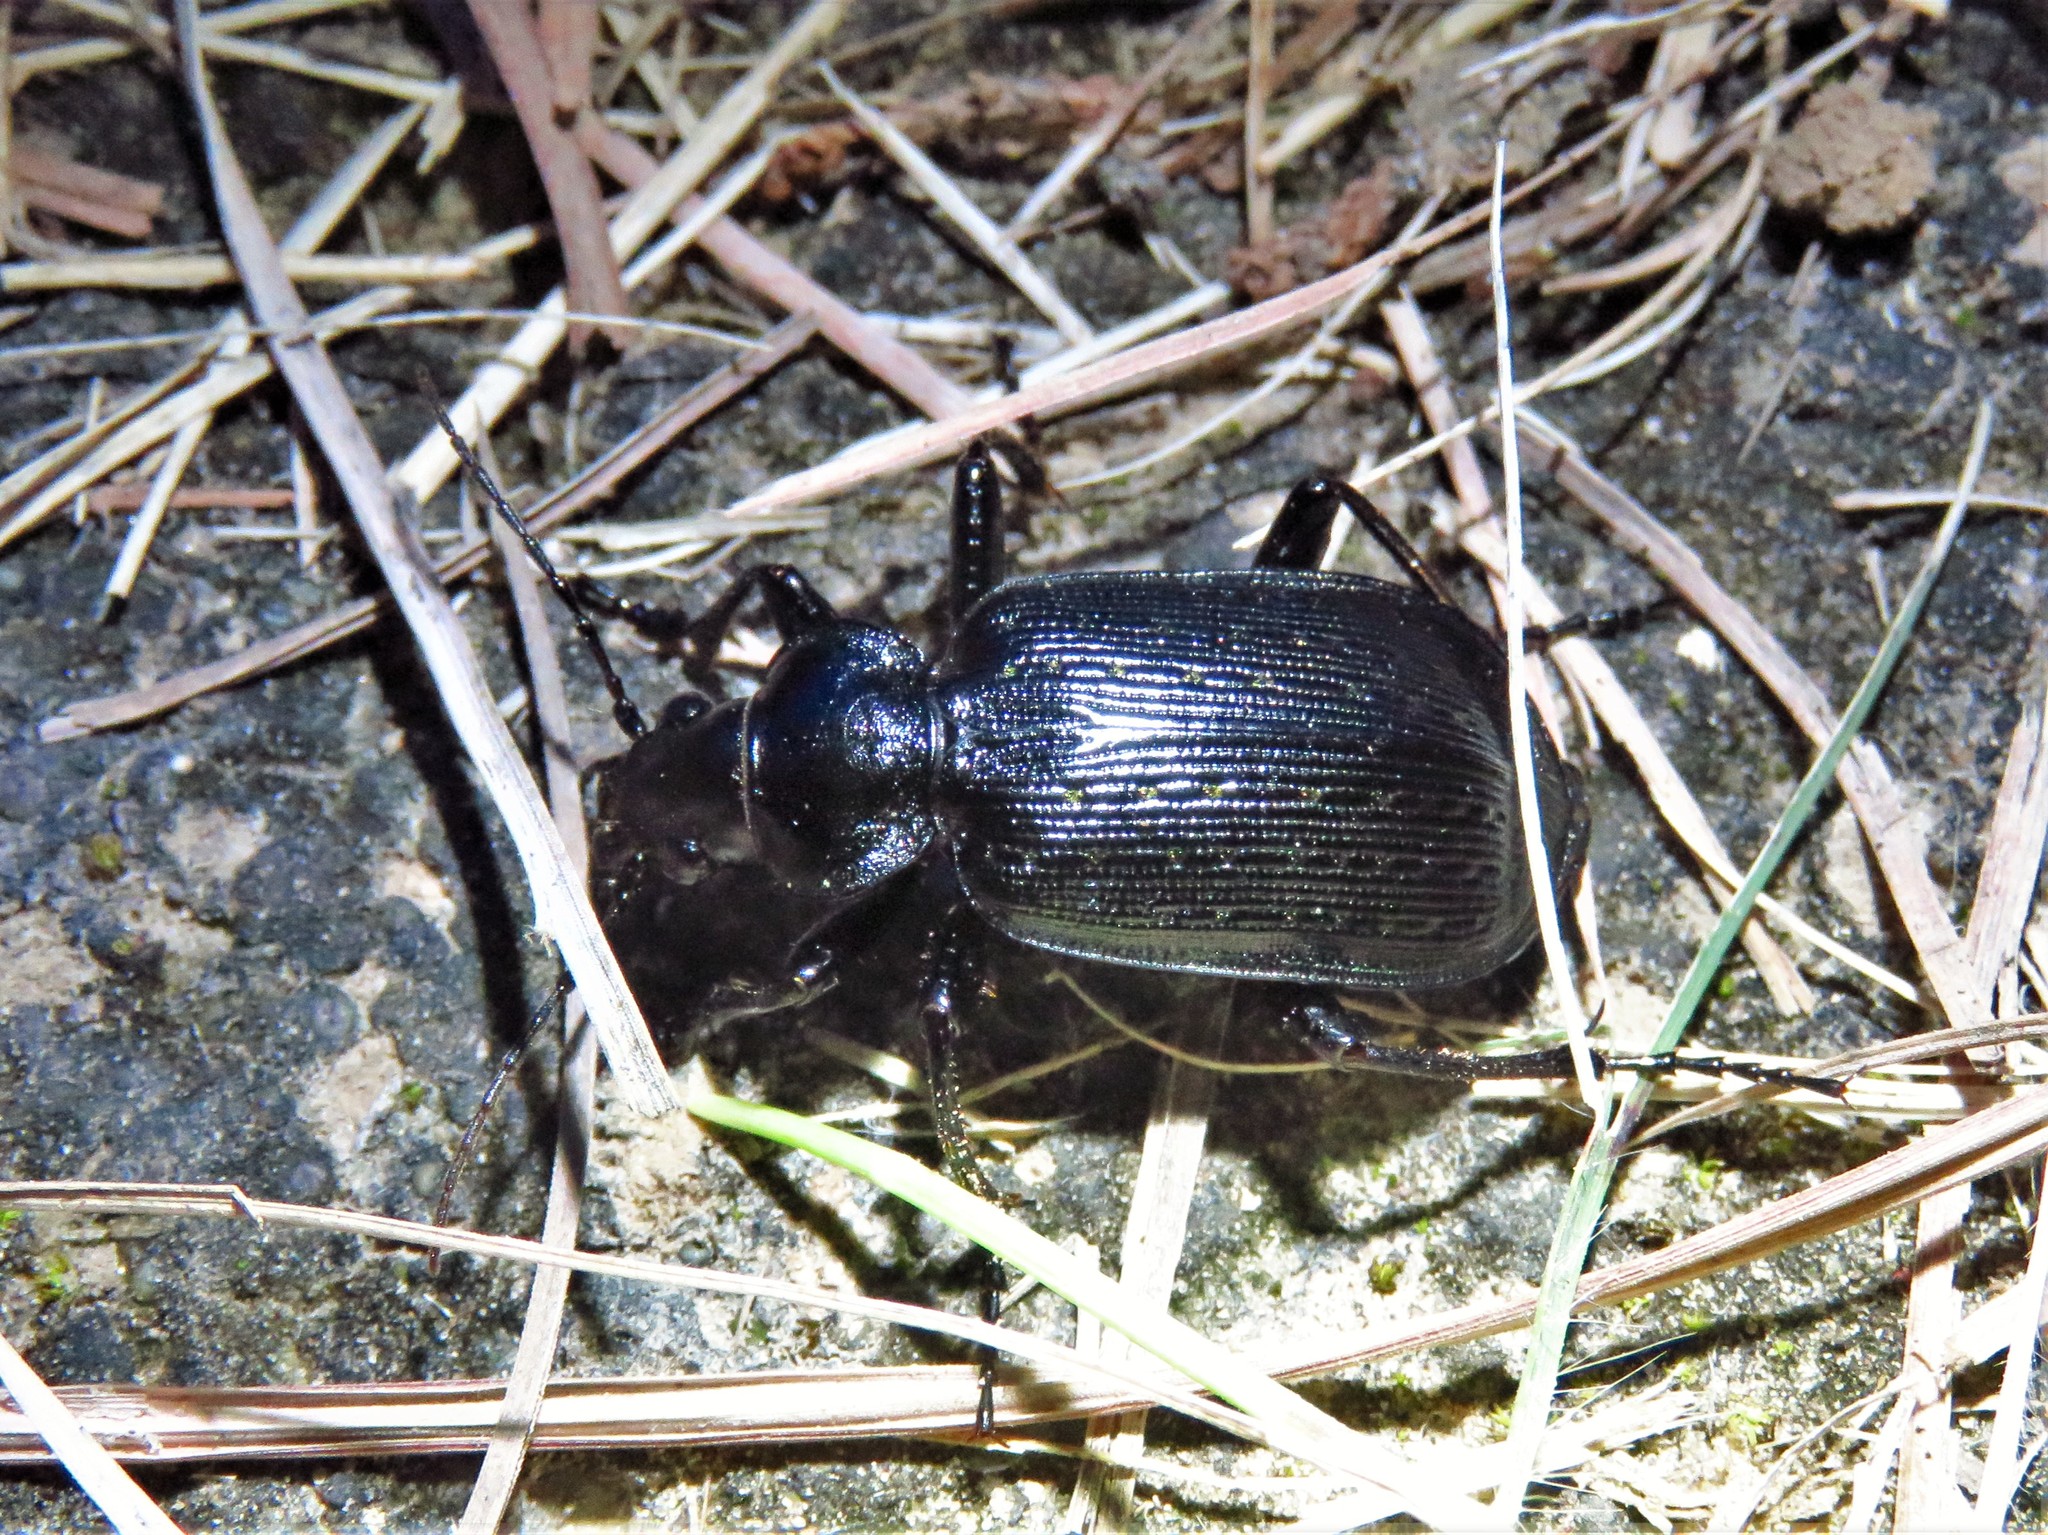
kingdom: Animalia
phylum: Arthropoda
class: Insecta
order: Coleoptera
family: Carabidae
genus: Calosoma
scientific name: Calosoma sayi
